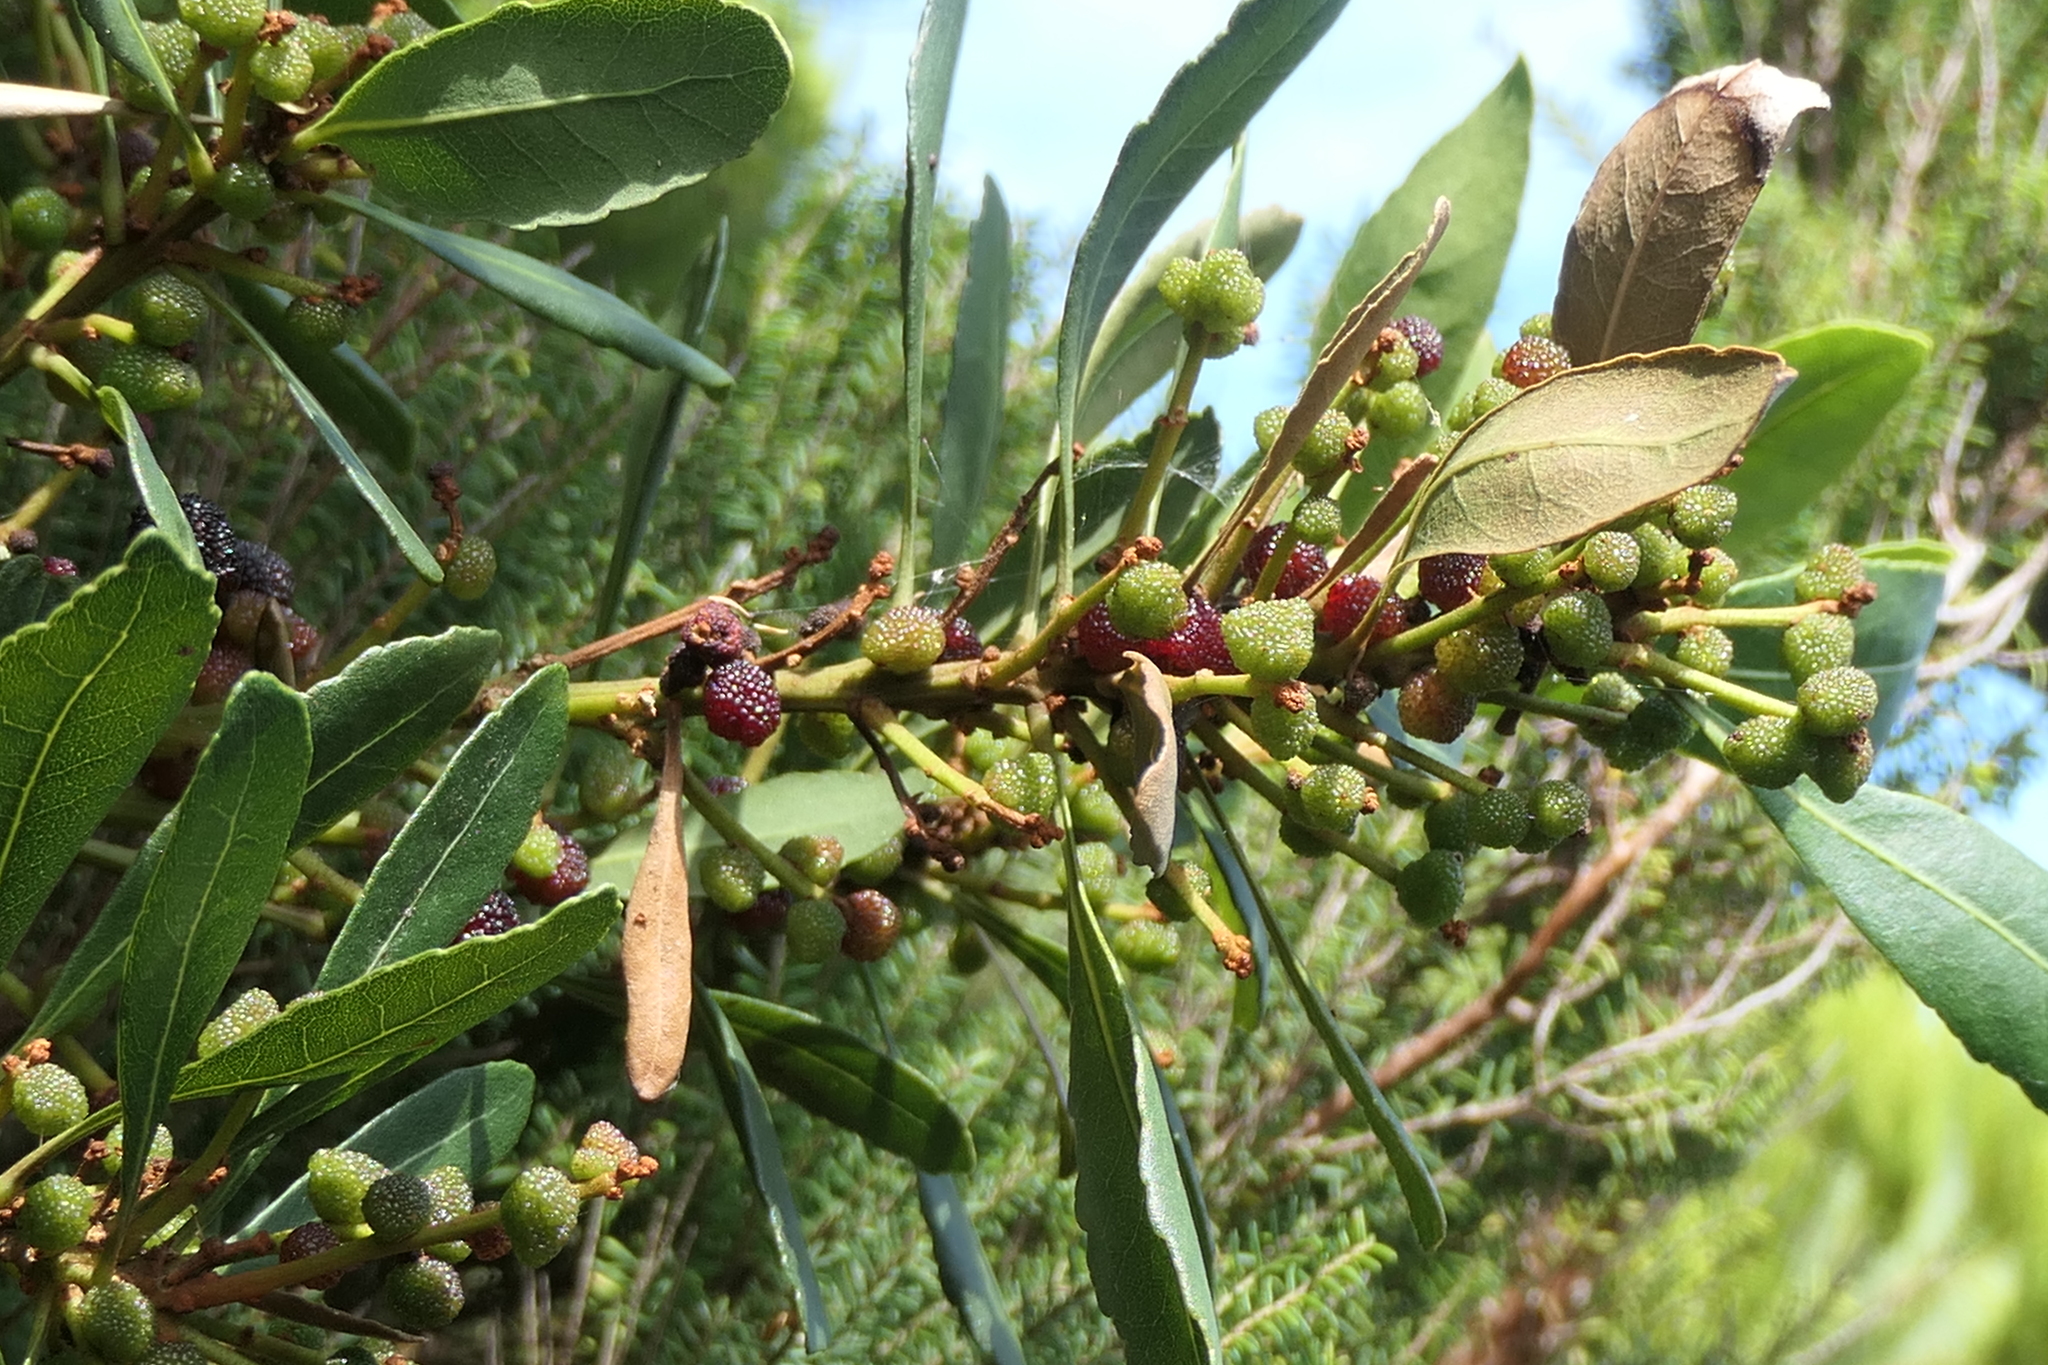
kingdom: Plantae
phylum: Tracheophyta
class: Magnoliopsida
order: Fagales
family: Myricaceae
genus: Morella
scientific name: Morella faya
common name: Firetree
